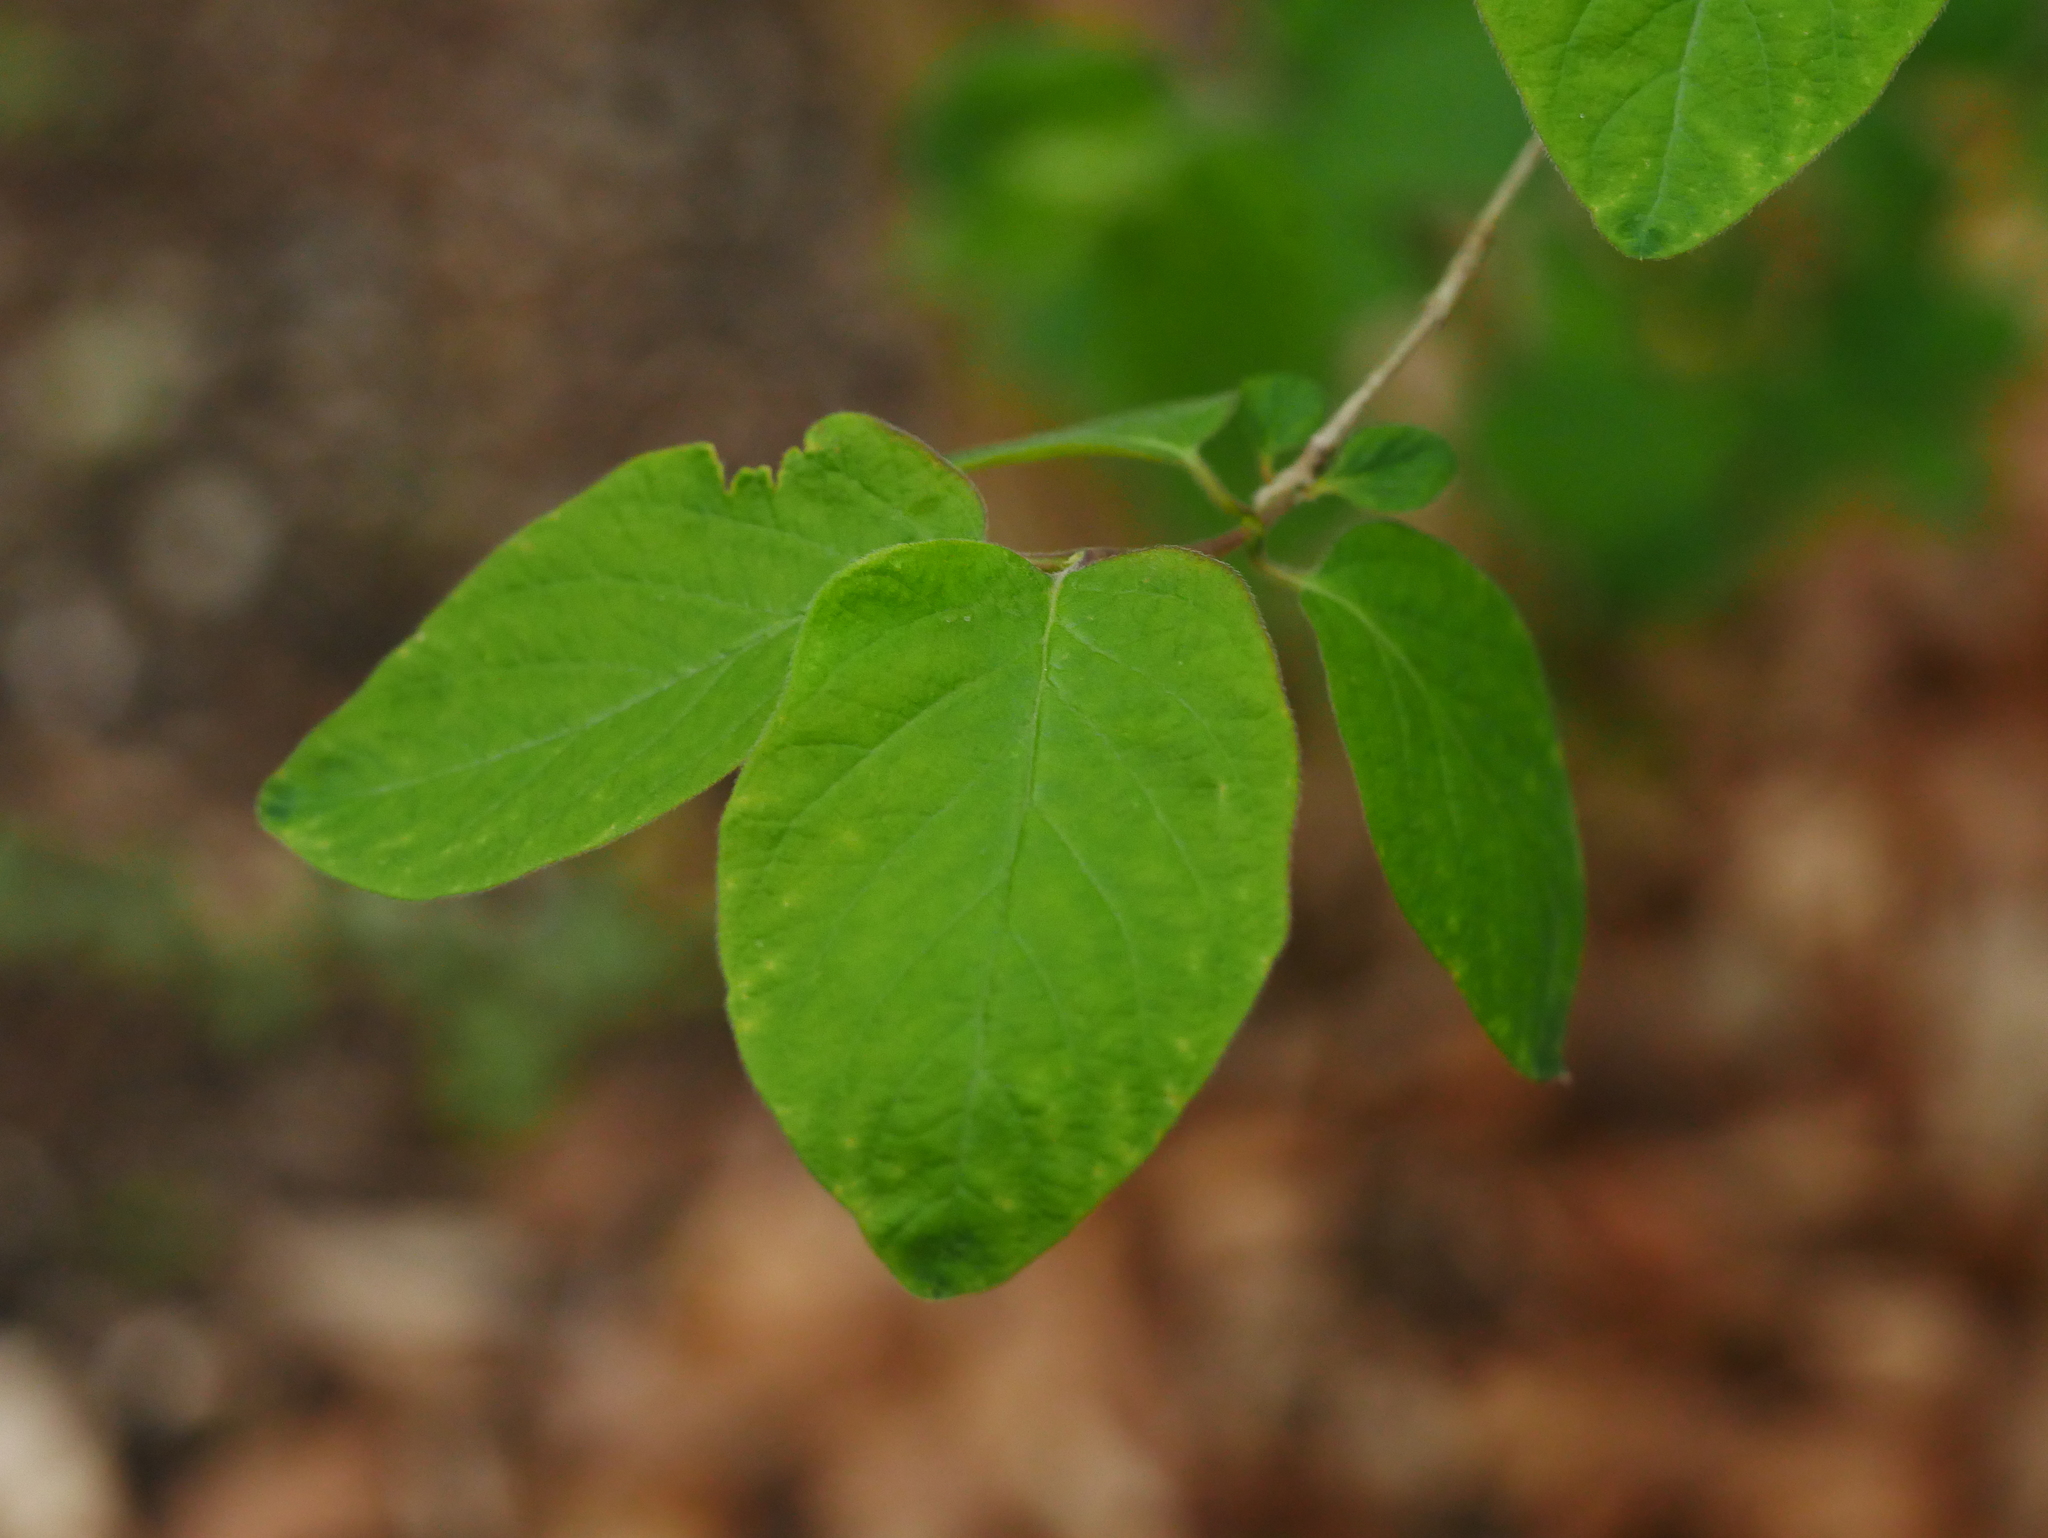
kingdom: Plantae
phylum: Tracheophyta
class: Magnoliopsida
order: Dipsacales
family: Caprifoliaceae
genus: Lonicera
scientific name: Lonicera xylosteum
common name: Fly honeysuckle
